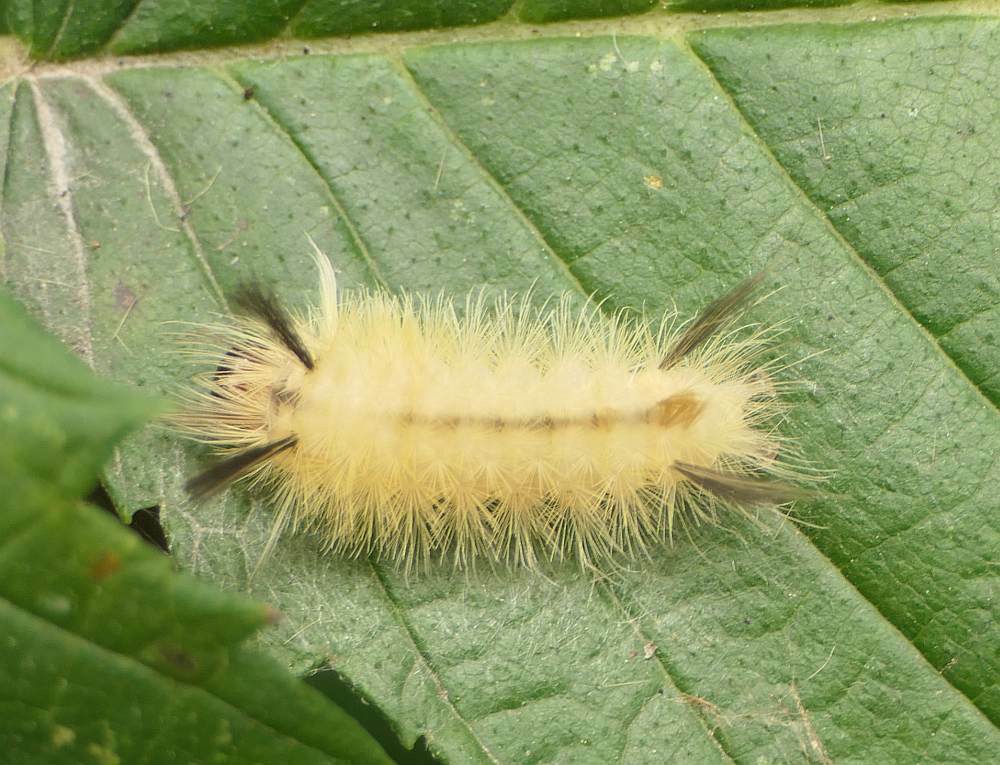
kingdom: Animalia
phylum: Arthropoda
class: Insecta
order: Lepidoptera
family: Erebidae
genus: Halysidota
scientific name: Halysidota tessellaris
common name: Banded tussock moth
